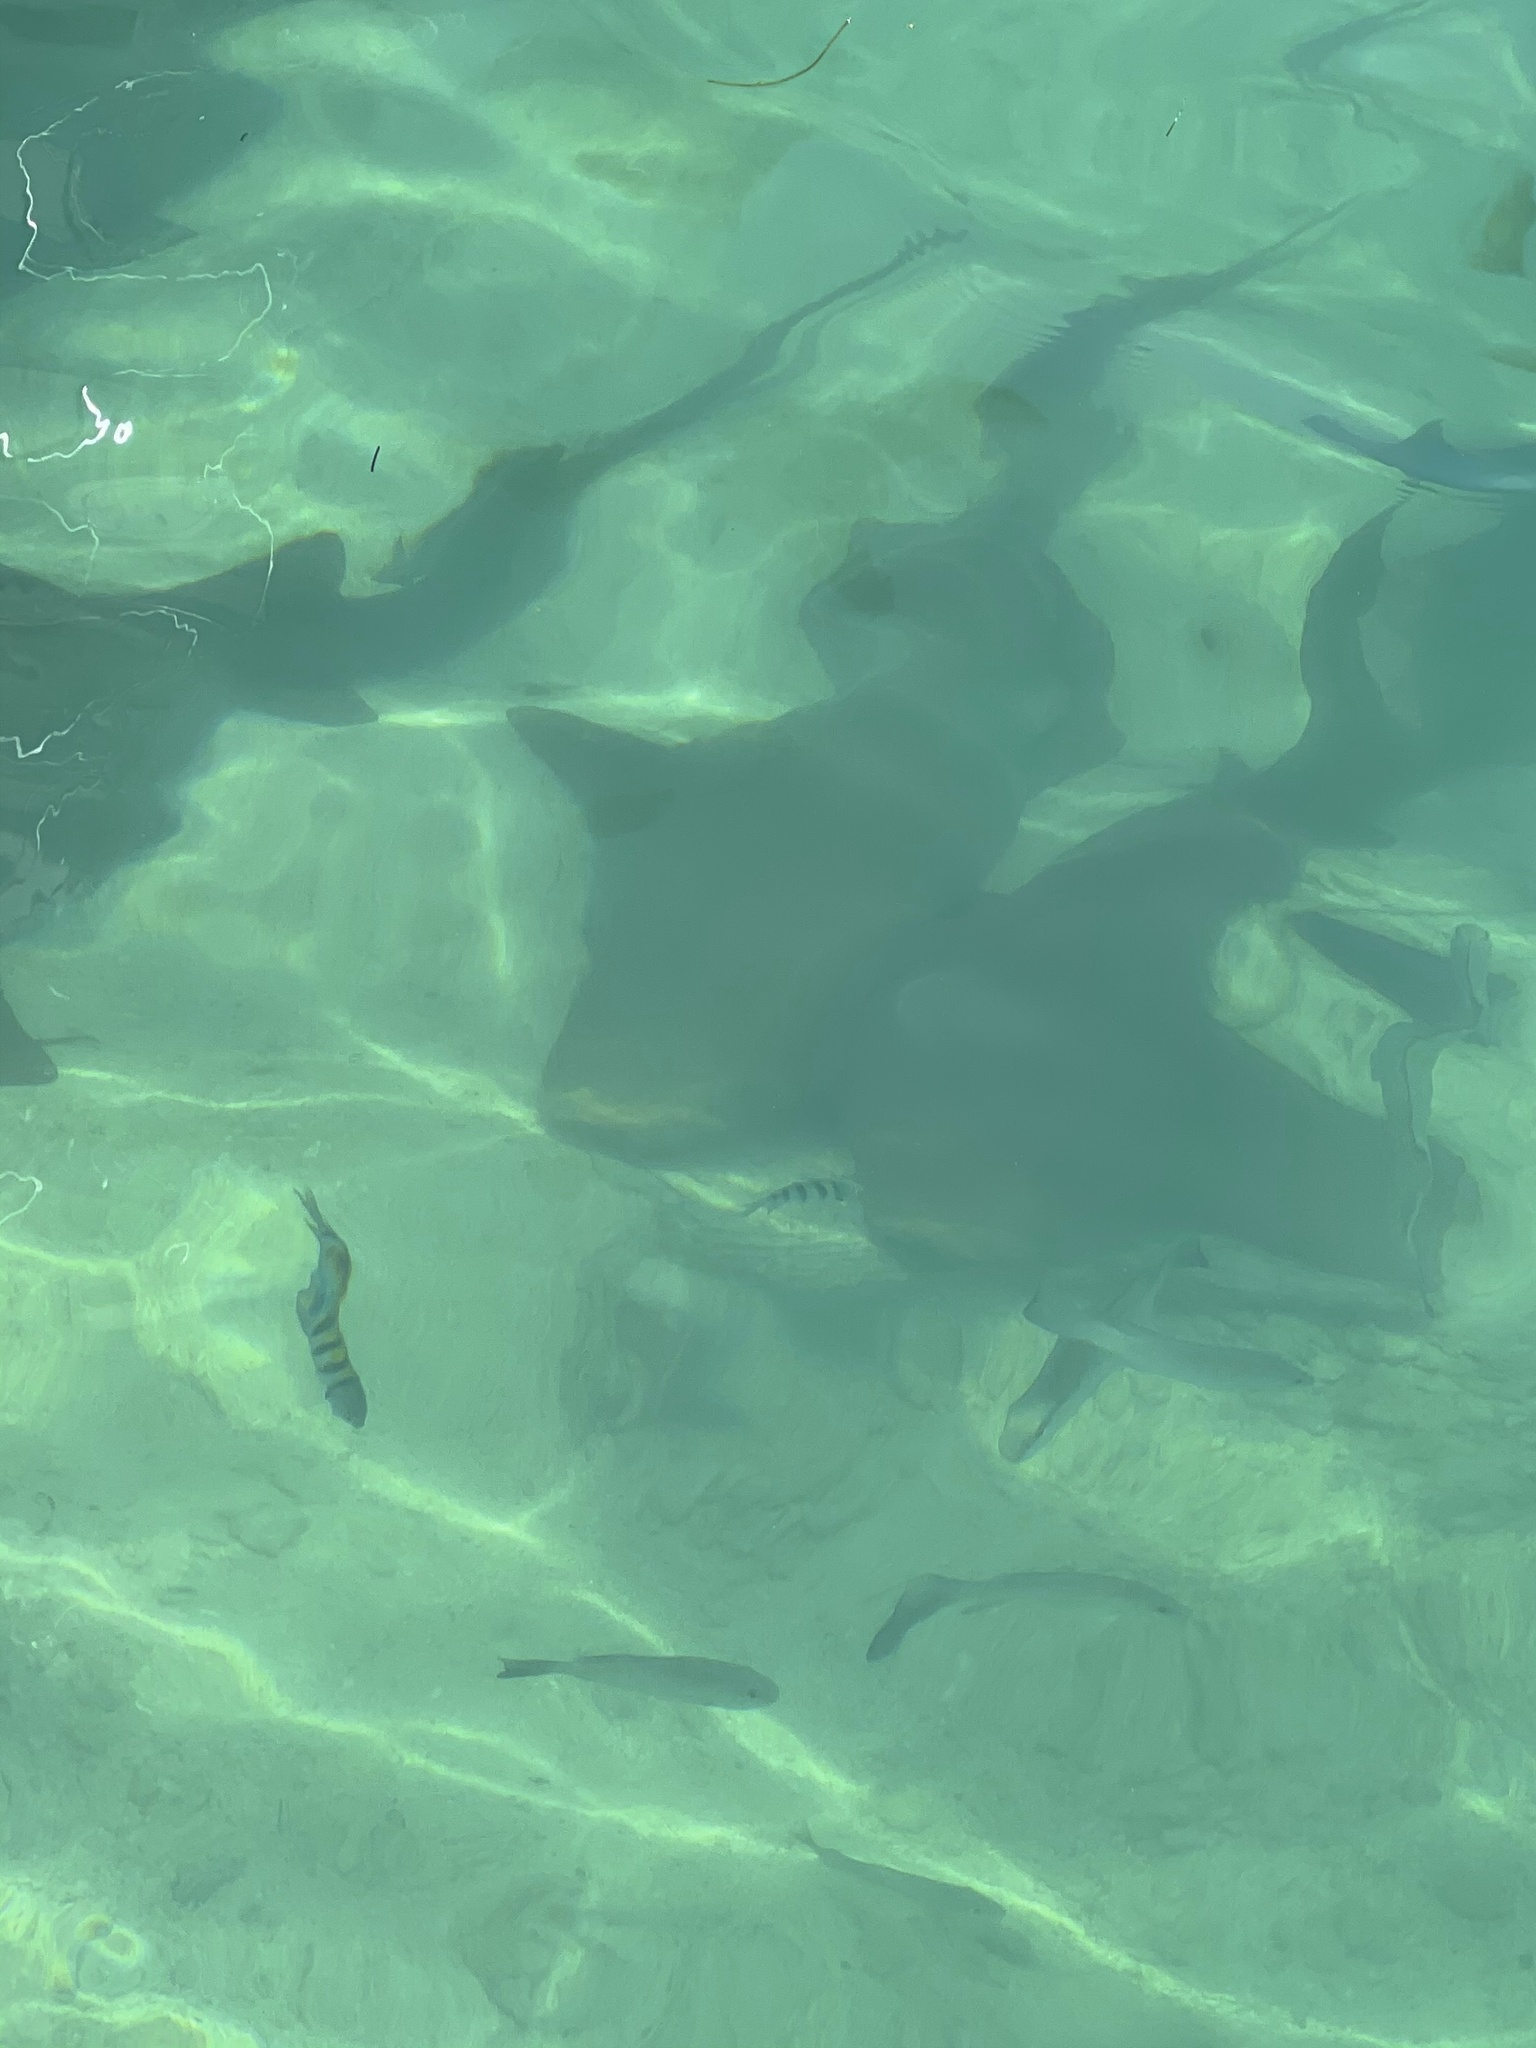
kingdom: Animalia
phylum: Chordata
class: Elasmobranchii
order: Orectolobiformes
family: Ginglymostomatidae
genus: Ginglymostoma
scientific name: Ginglymostoma cirratum
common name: Nurse shark
